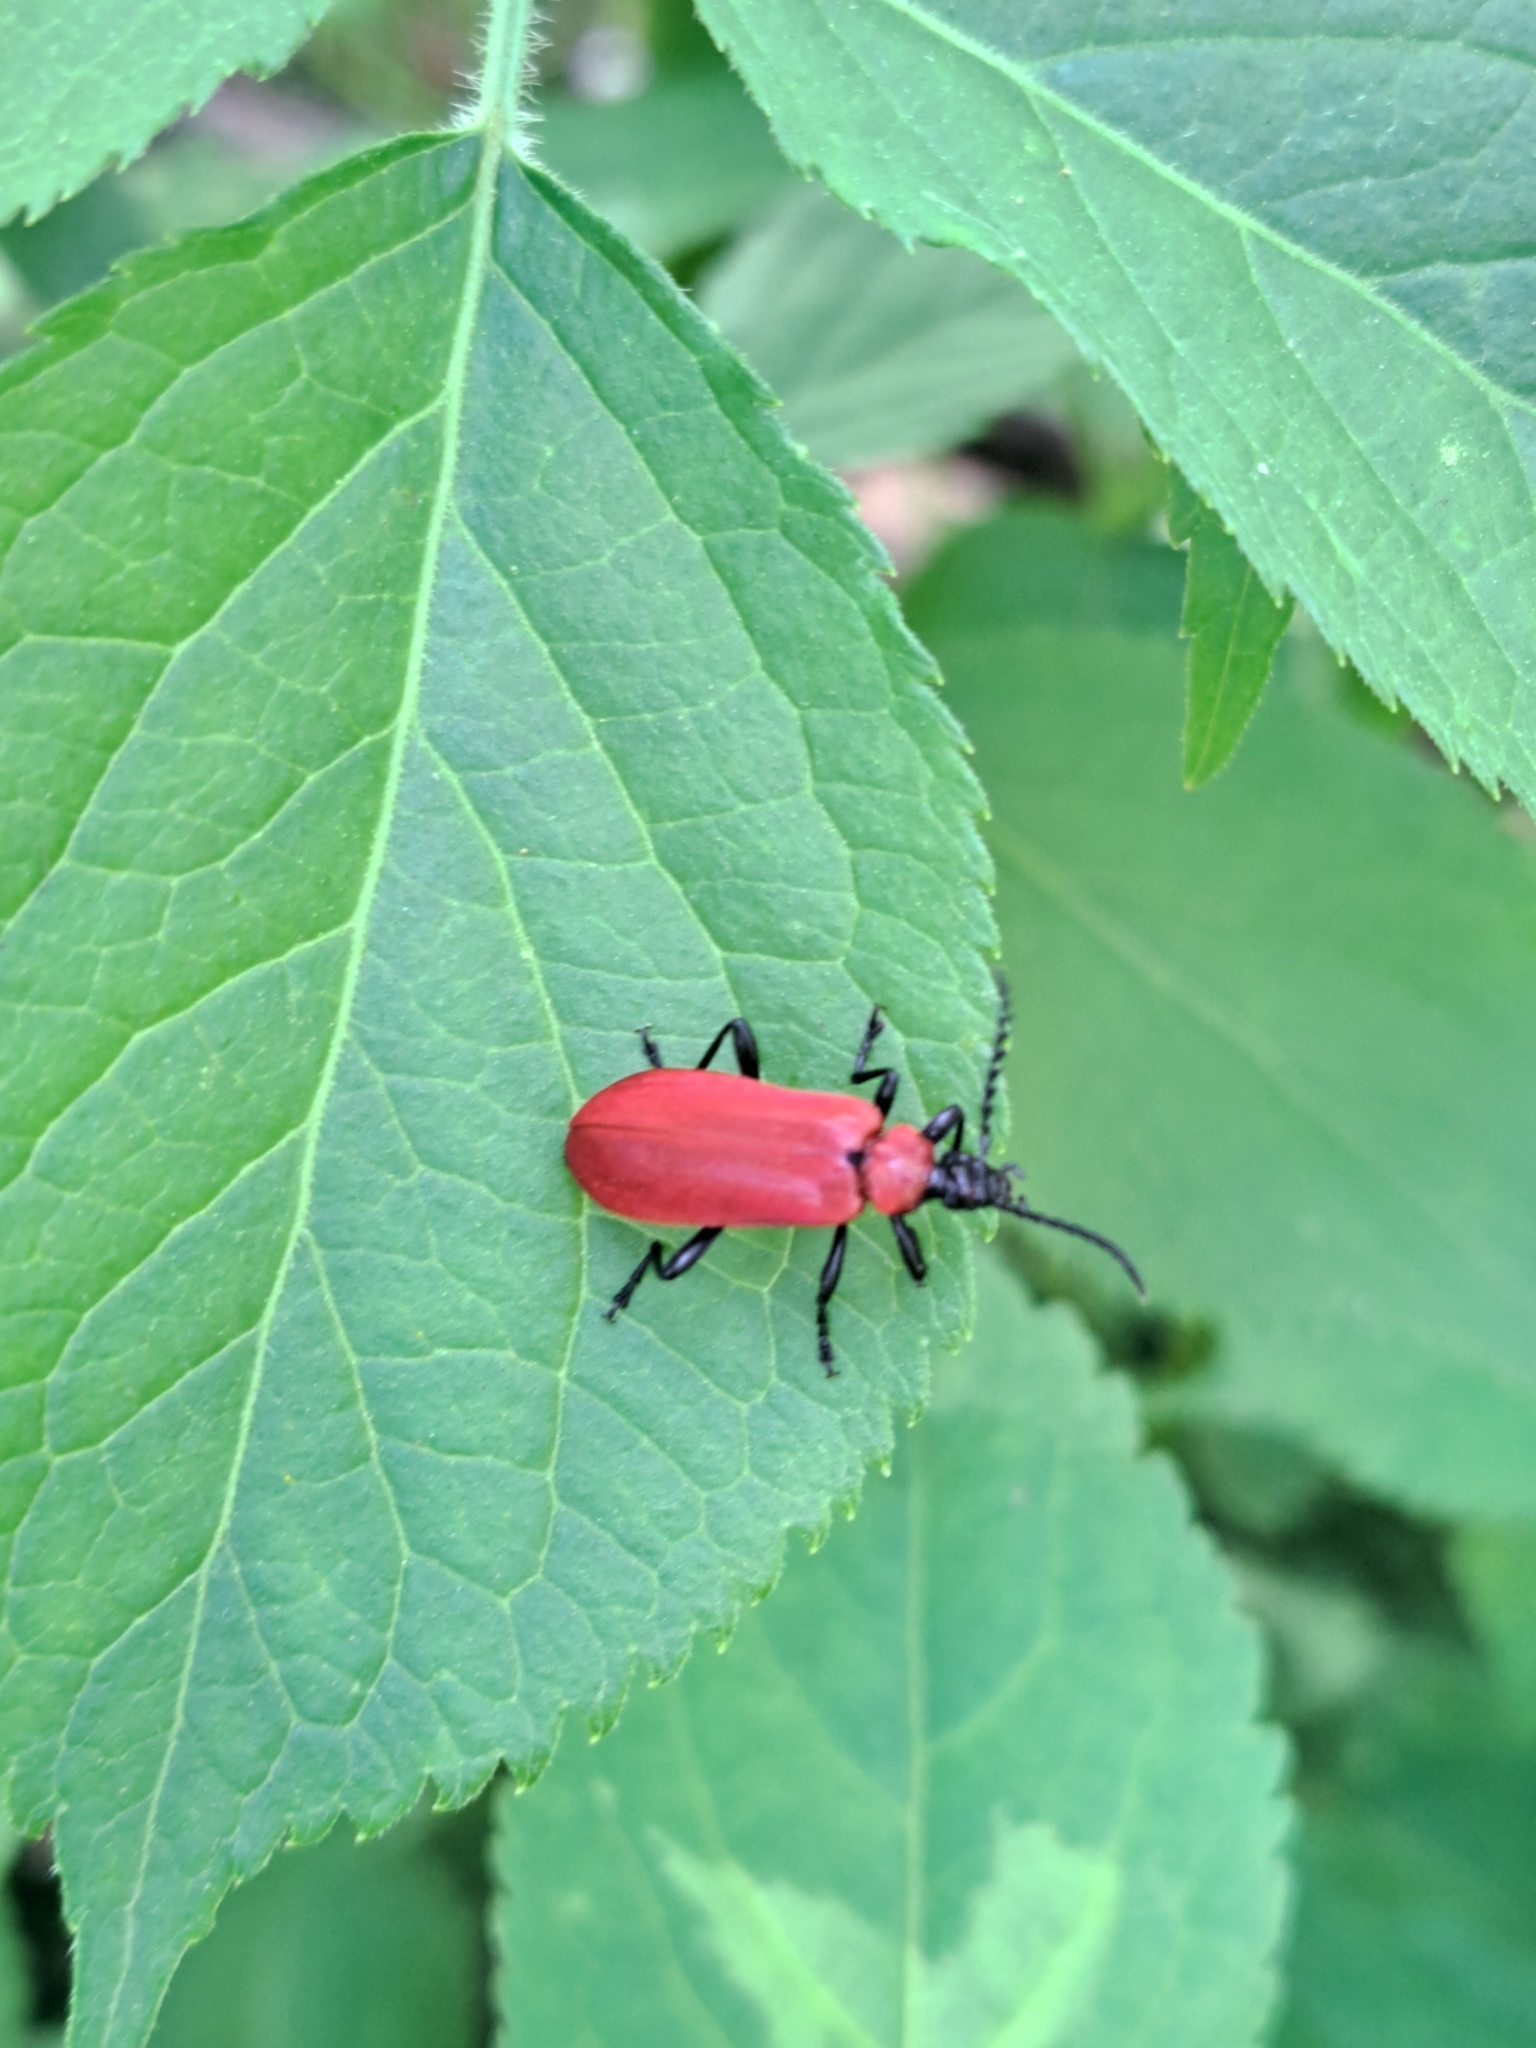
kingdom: Animalia
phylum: Arthropoda
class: Insecta
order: Coleoptera
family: Pyrochroidae
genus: Pyrochroa
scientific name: Pyrochroa coccinea
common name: Black-headed cardinal beetle
